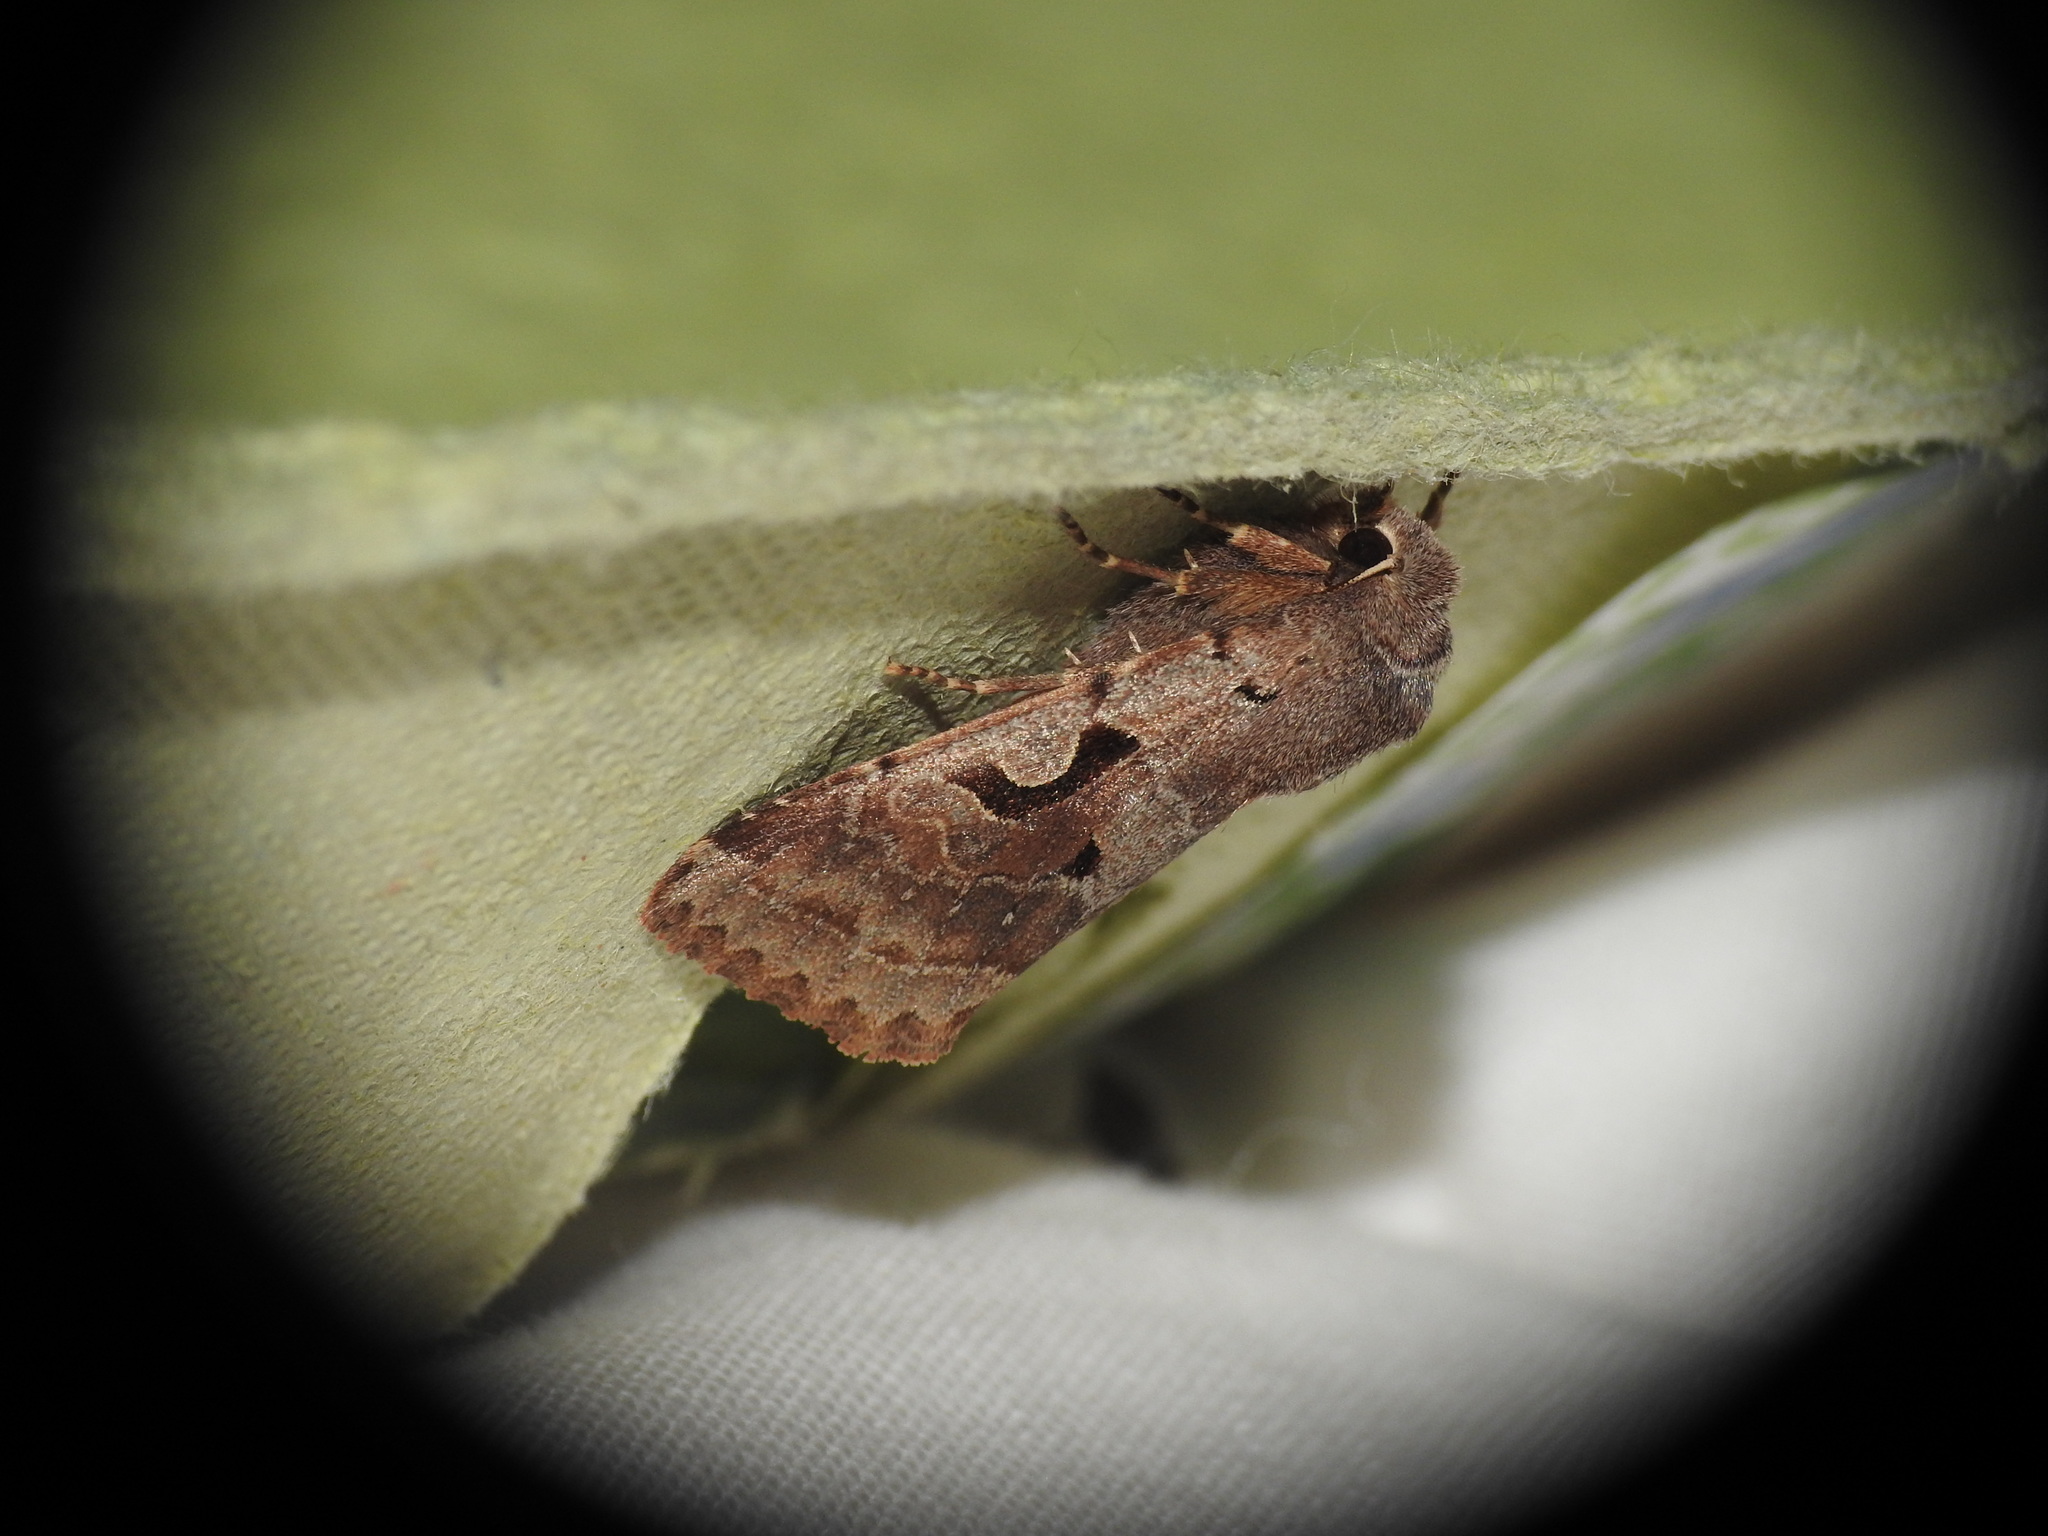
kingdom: Animalia
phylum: Arthropoda
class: Insecta
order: Lepidoptera
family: Noctuidae
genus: Orthosia
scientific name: Orthosia gothica
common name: Hebrew character
